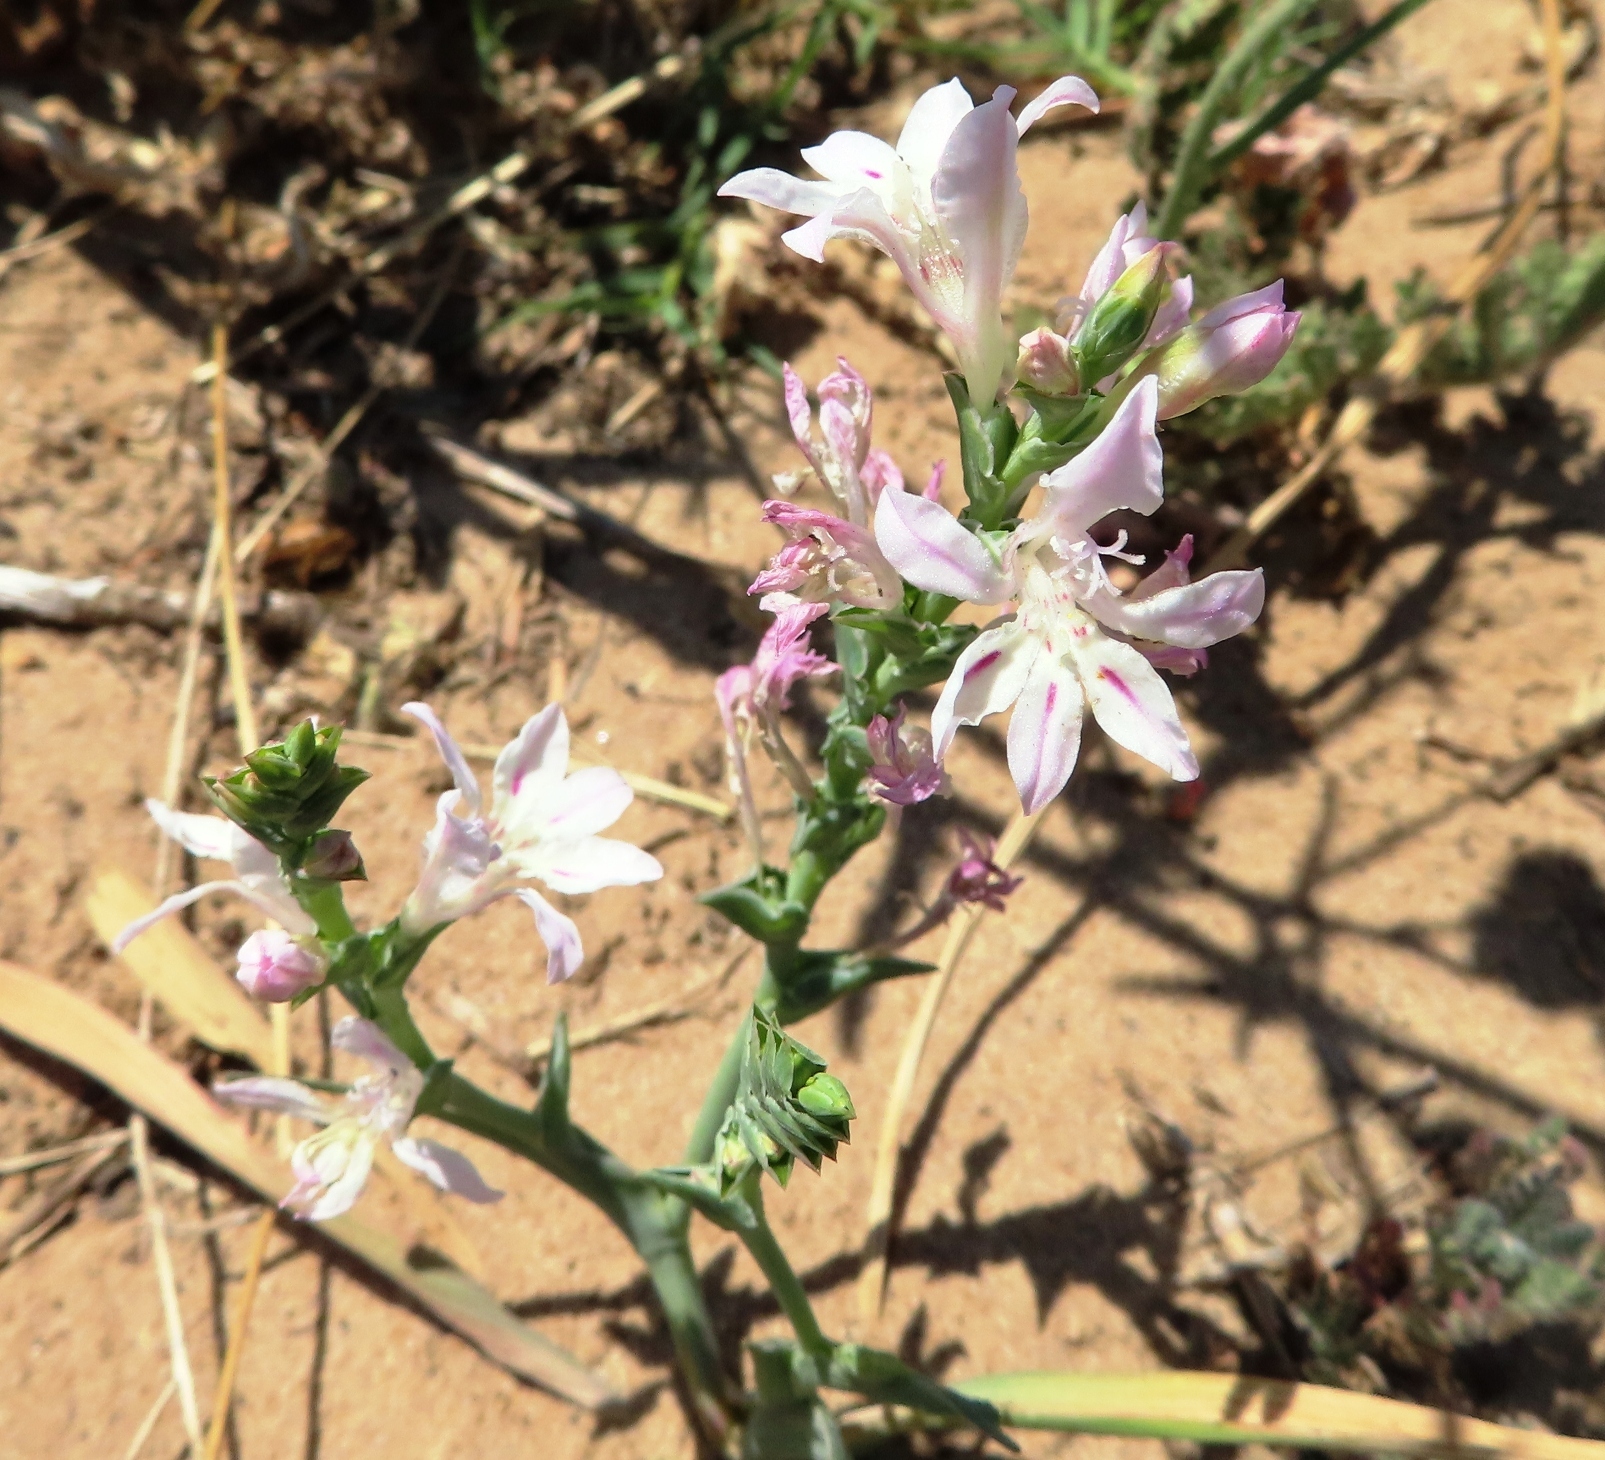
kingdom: Plantae
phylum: Tracheophyta
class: Liliopsida
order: Asparagales
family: Iridaceae
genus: Lapeirousia
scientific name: Lapeirousia divaricata
